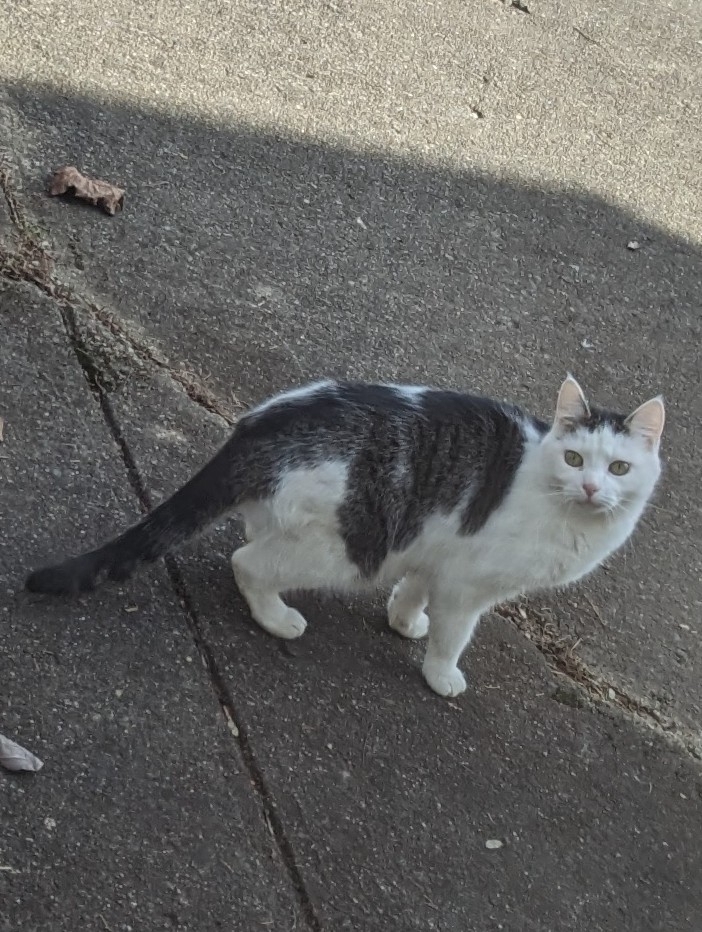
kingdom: Animalia
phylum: Chordata
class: Mammalia
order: Carnivora
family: Felidae
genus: Felis
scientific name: Felis catus
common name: Domestic cat
